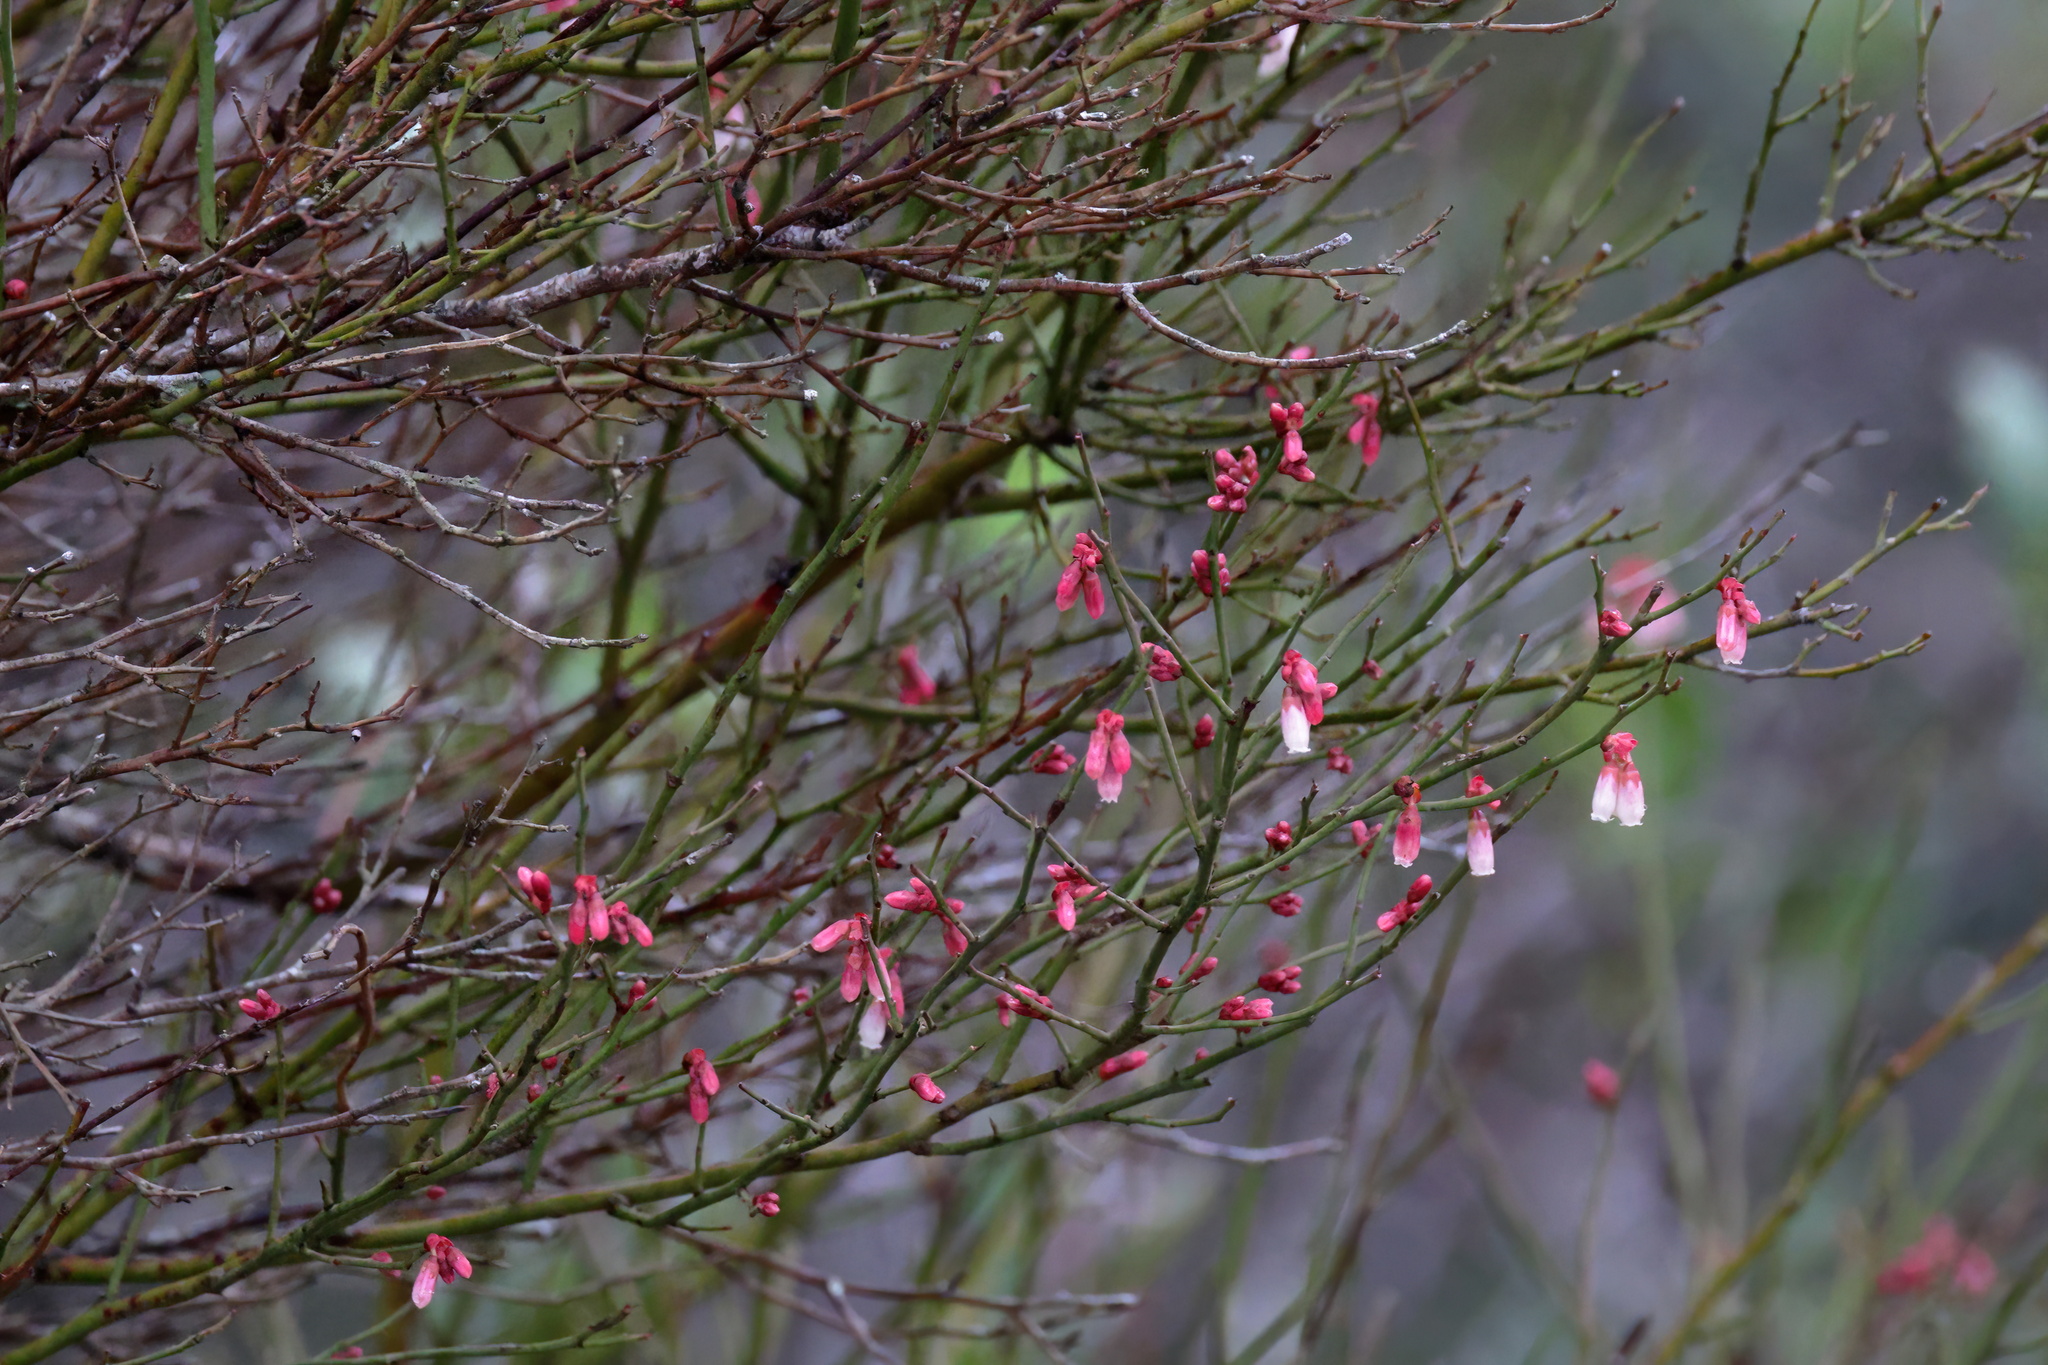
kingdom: Plantae
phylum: Tracheophyta
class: Magnoliopsida
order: Ericales
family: Ericaceae
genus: Vaccinium
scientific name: Vaccinium corymbosum
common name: Blueberry
